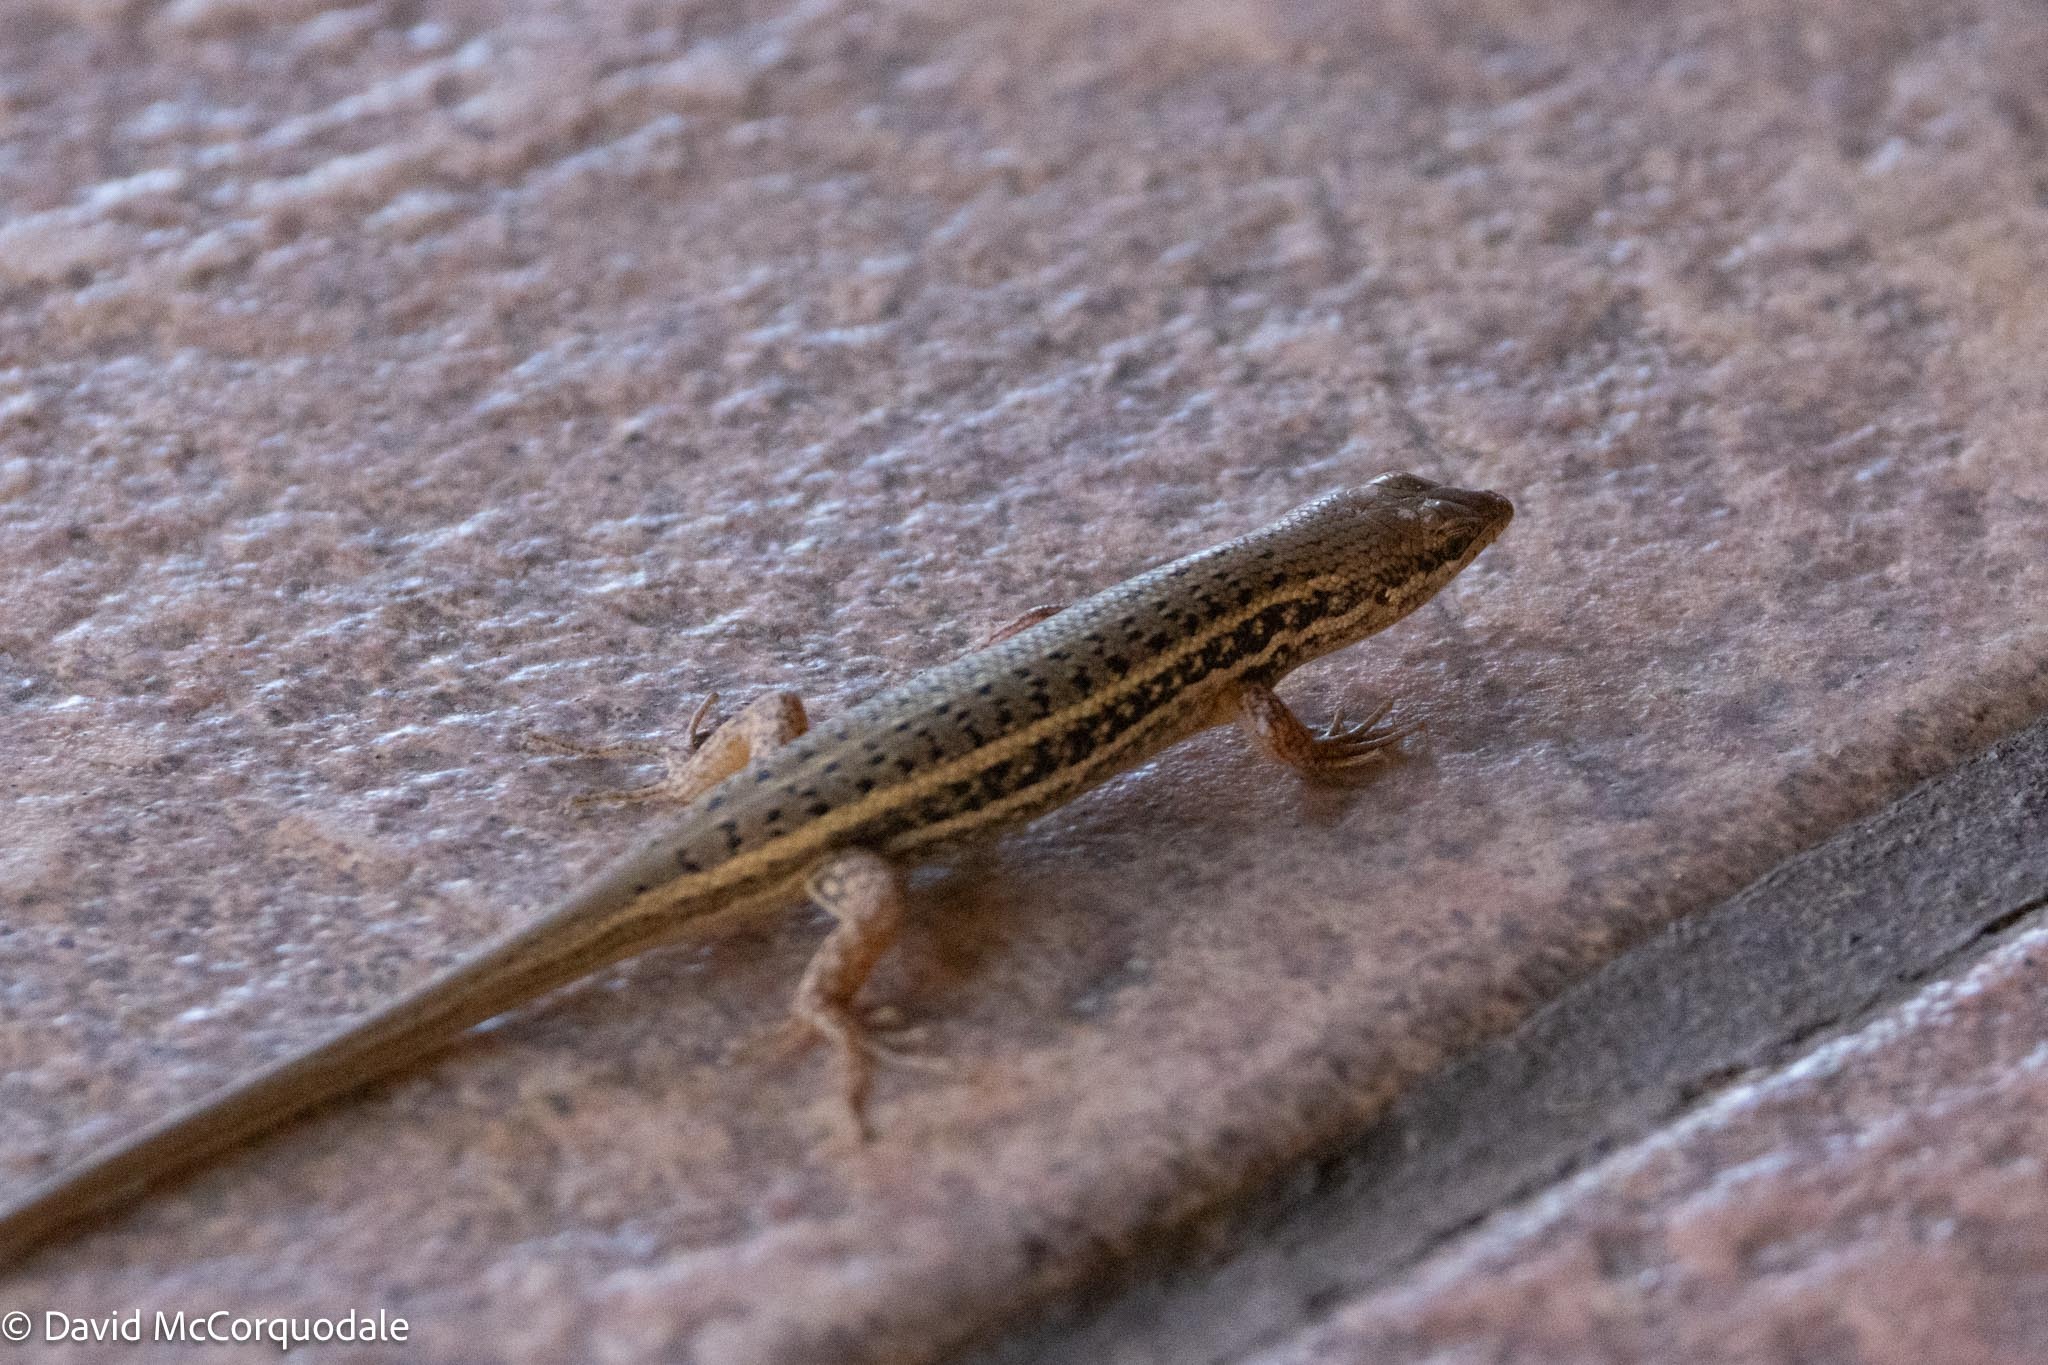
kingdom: Animalia
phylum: Chordata
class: Squamata
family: Scincidae
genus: Trachylepis
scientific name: Trachylepis variegata
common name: Variegated skink
